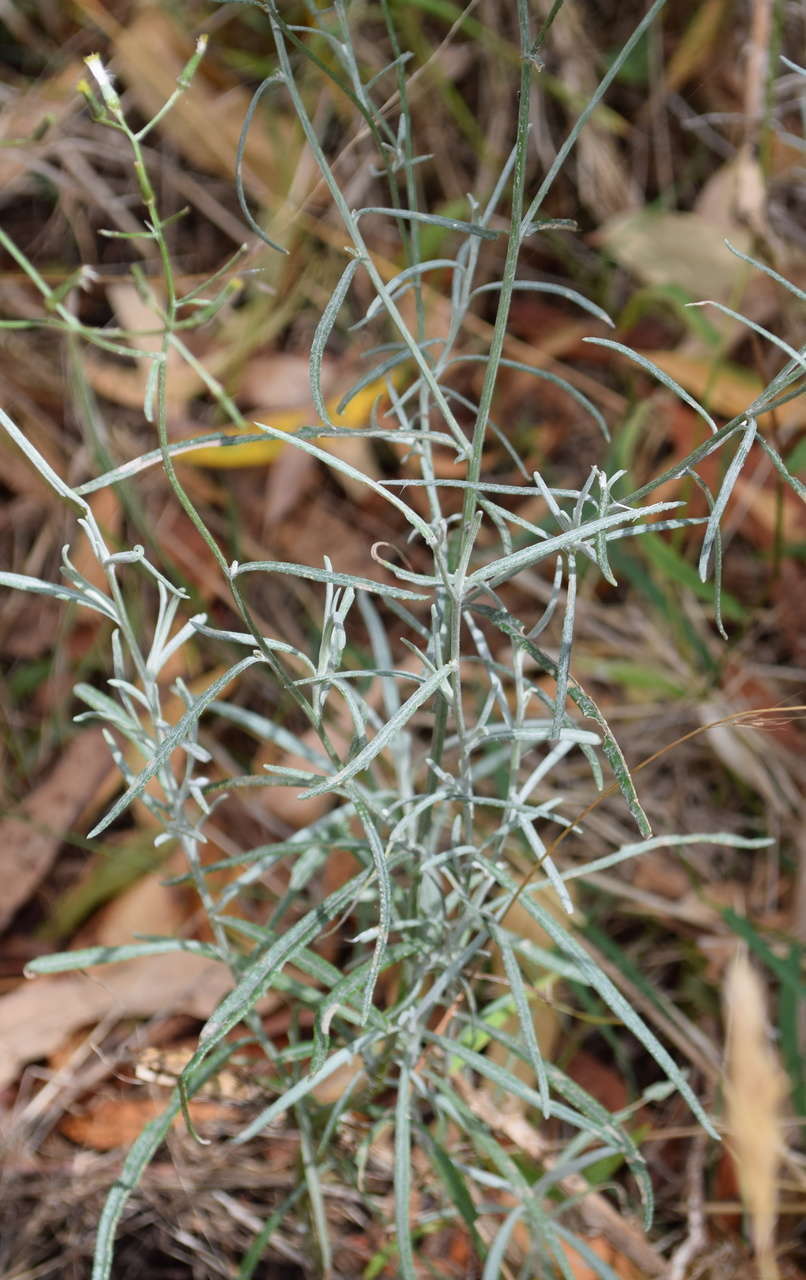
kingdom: Plantae
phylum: Tracheophyta
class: Magnoliopsida
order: Asterales
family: Asteraceae
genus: Senecio
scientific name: Senecio quadridentatus
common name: Cotton fireweed
